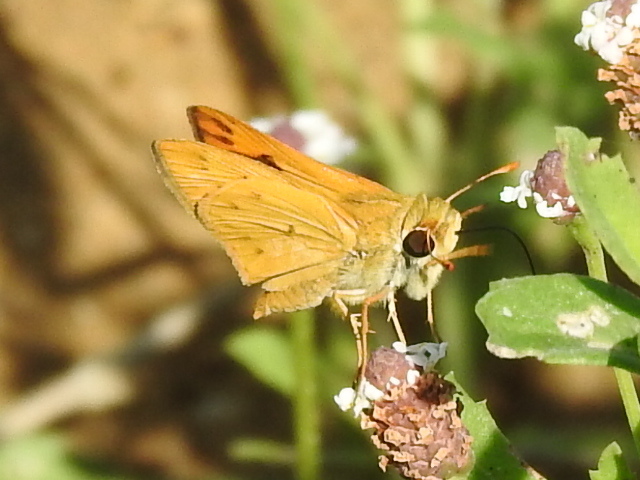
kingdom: Animalia
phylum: Arthropoda
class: Insecta
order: Lepidoptera
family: Hesperiidae
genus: Hylephila
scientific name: Hylephila phyleus
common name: Fiery skipper
